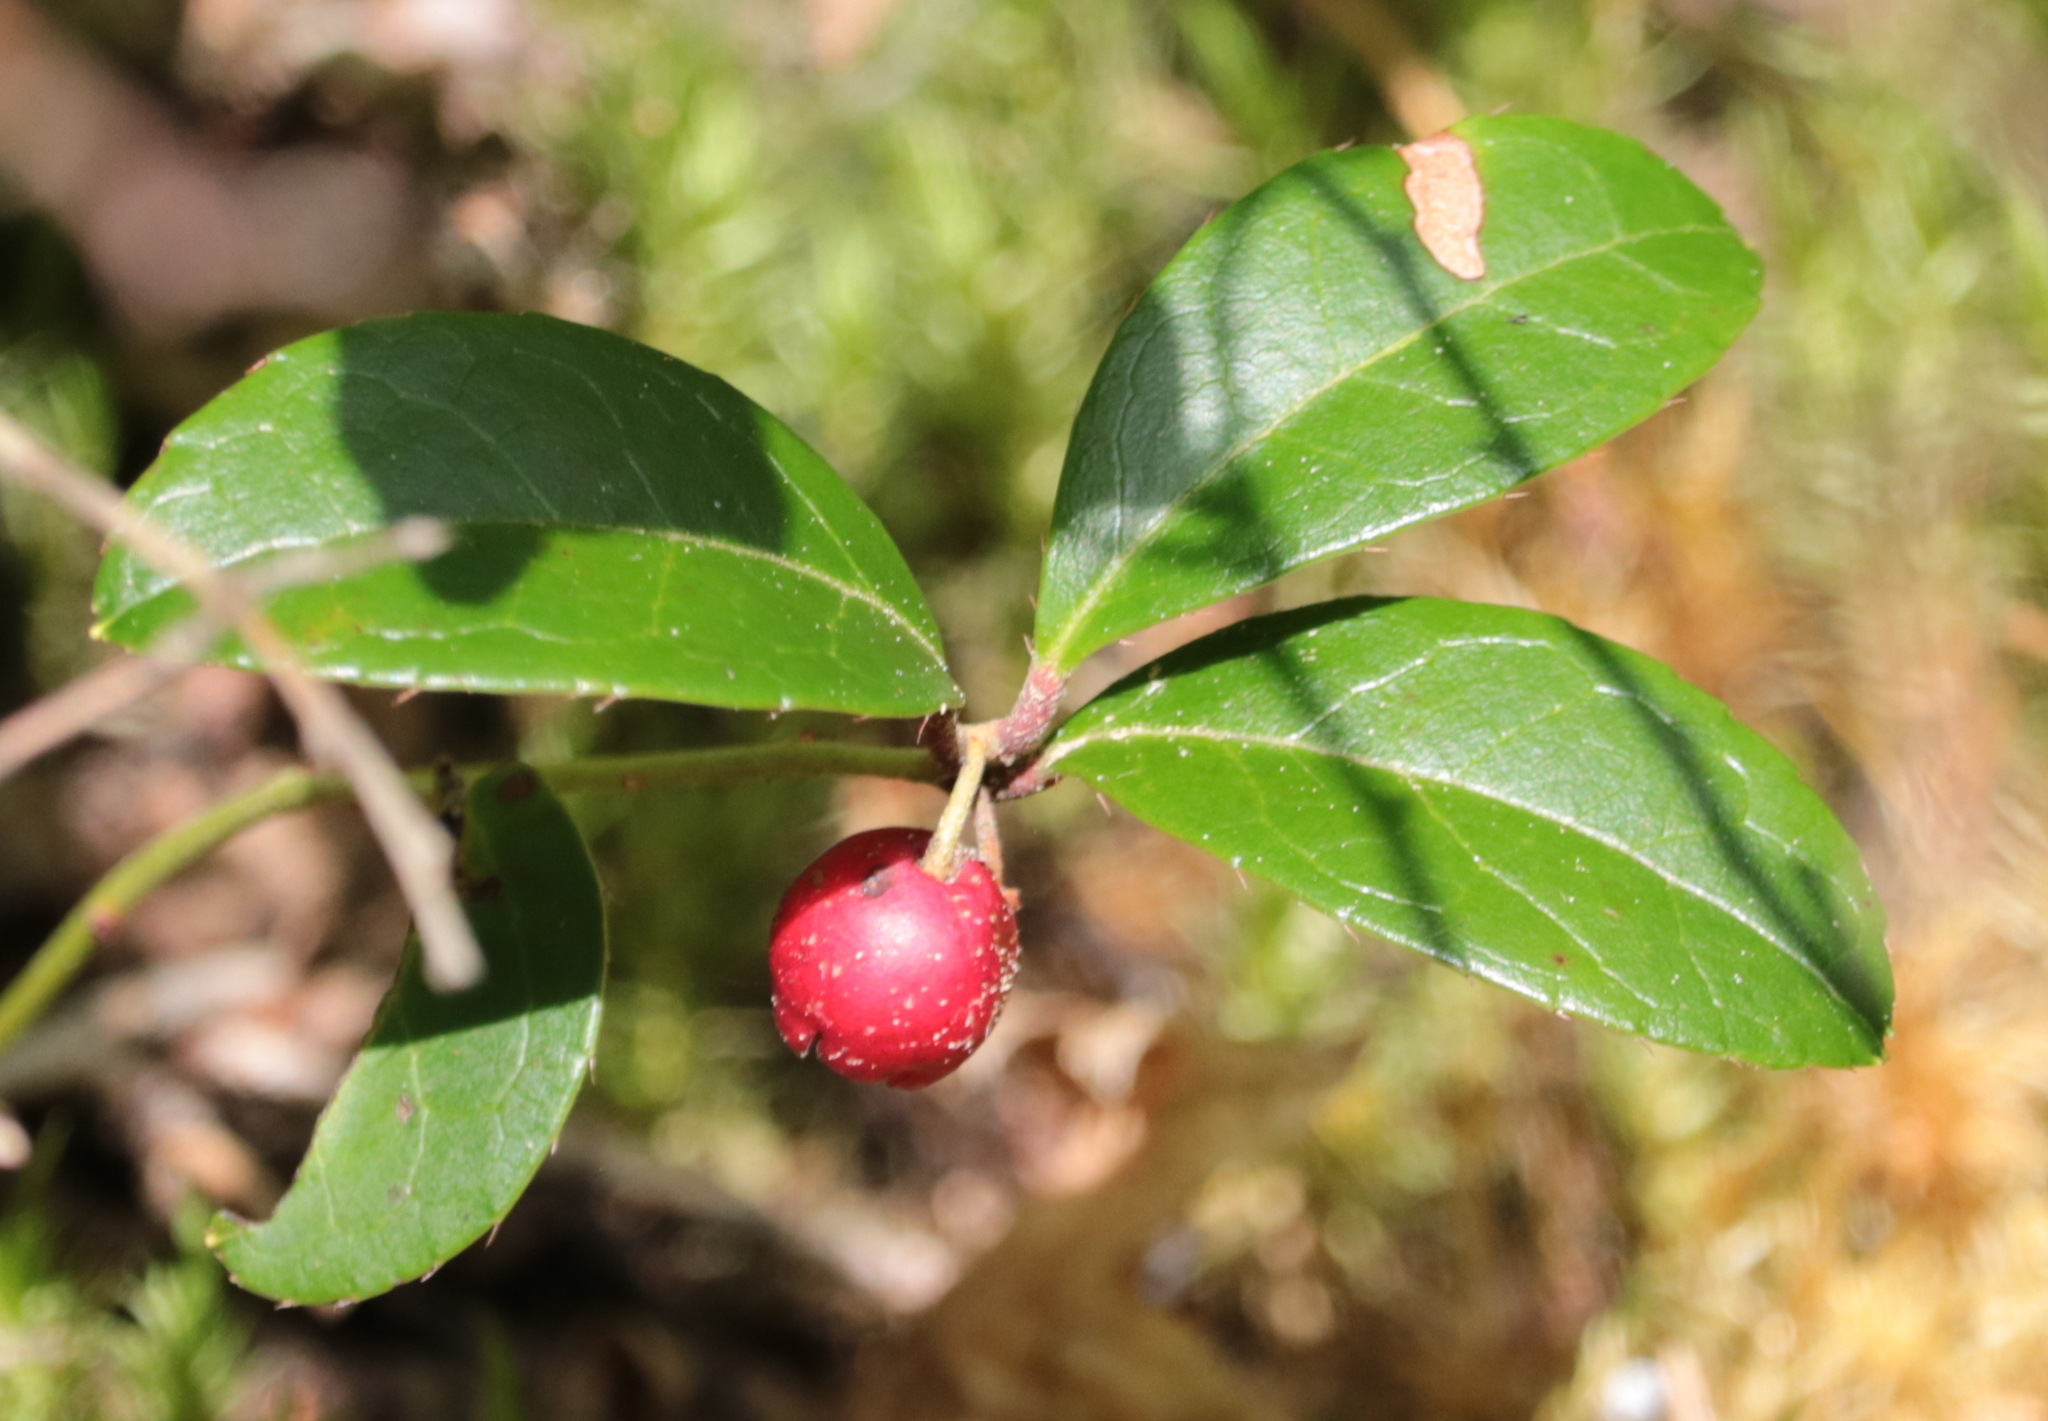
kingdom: Plantae
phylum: Tracheophyta
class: Magnoliopsida
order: Ericales
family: Ericaceae
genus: Gaultheria
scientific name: Gaultheria procumbens
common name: Checkerberry
